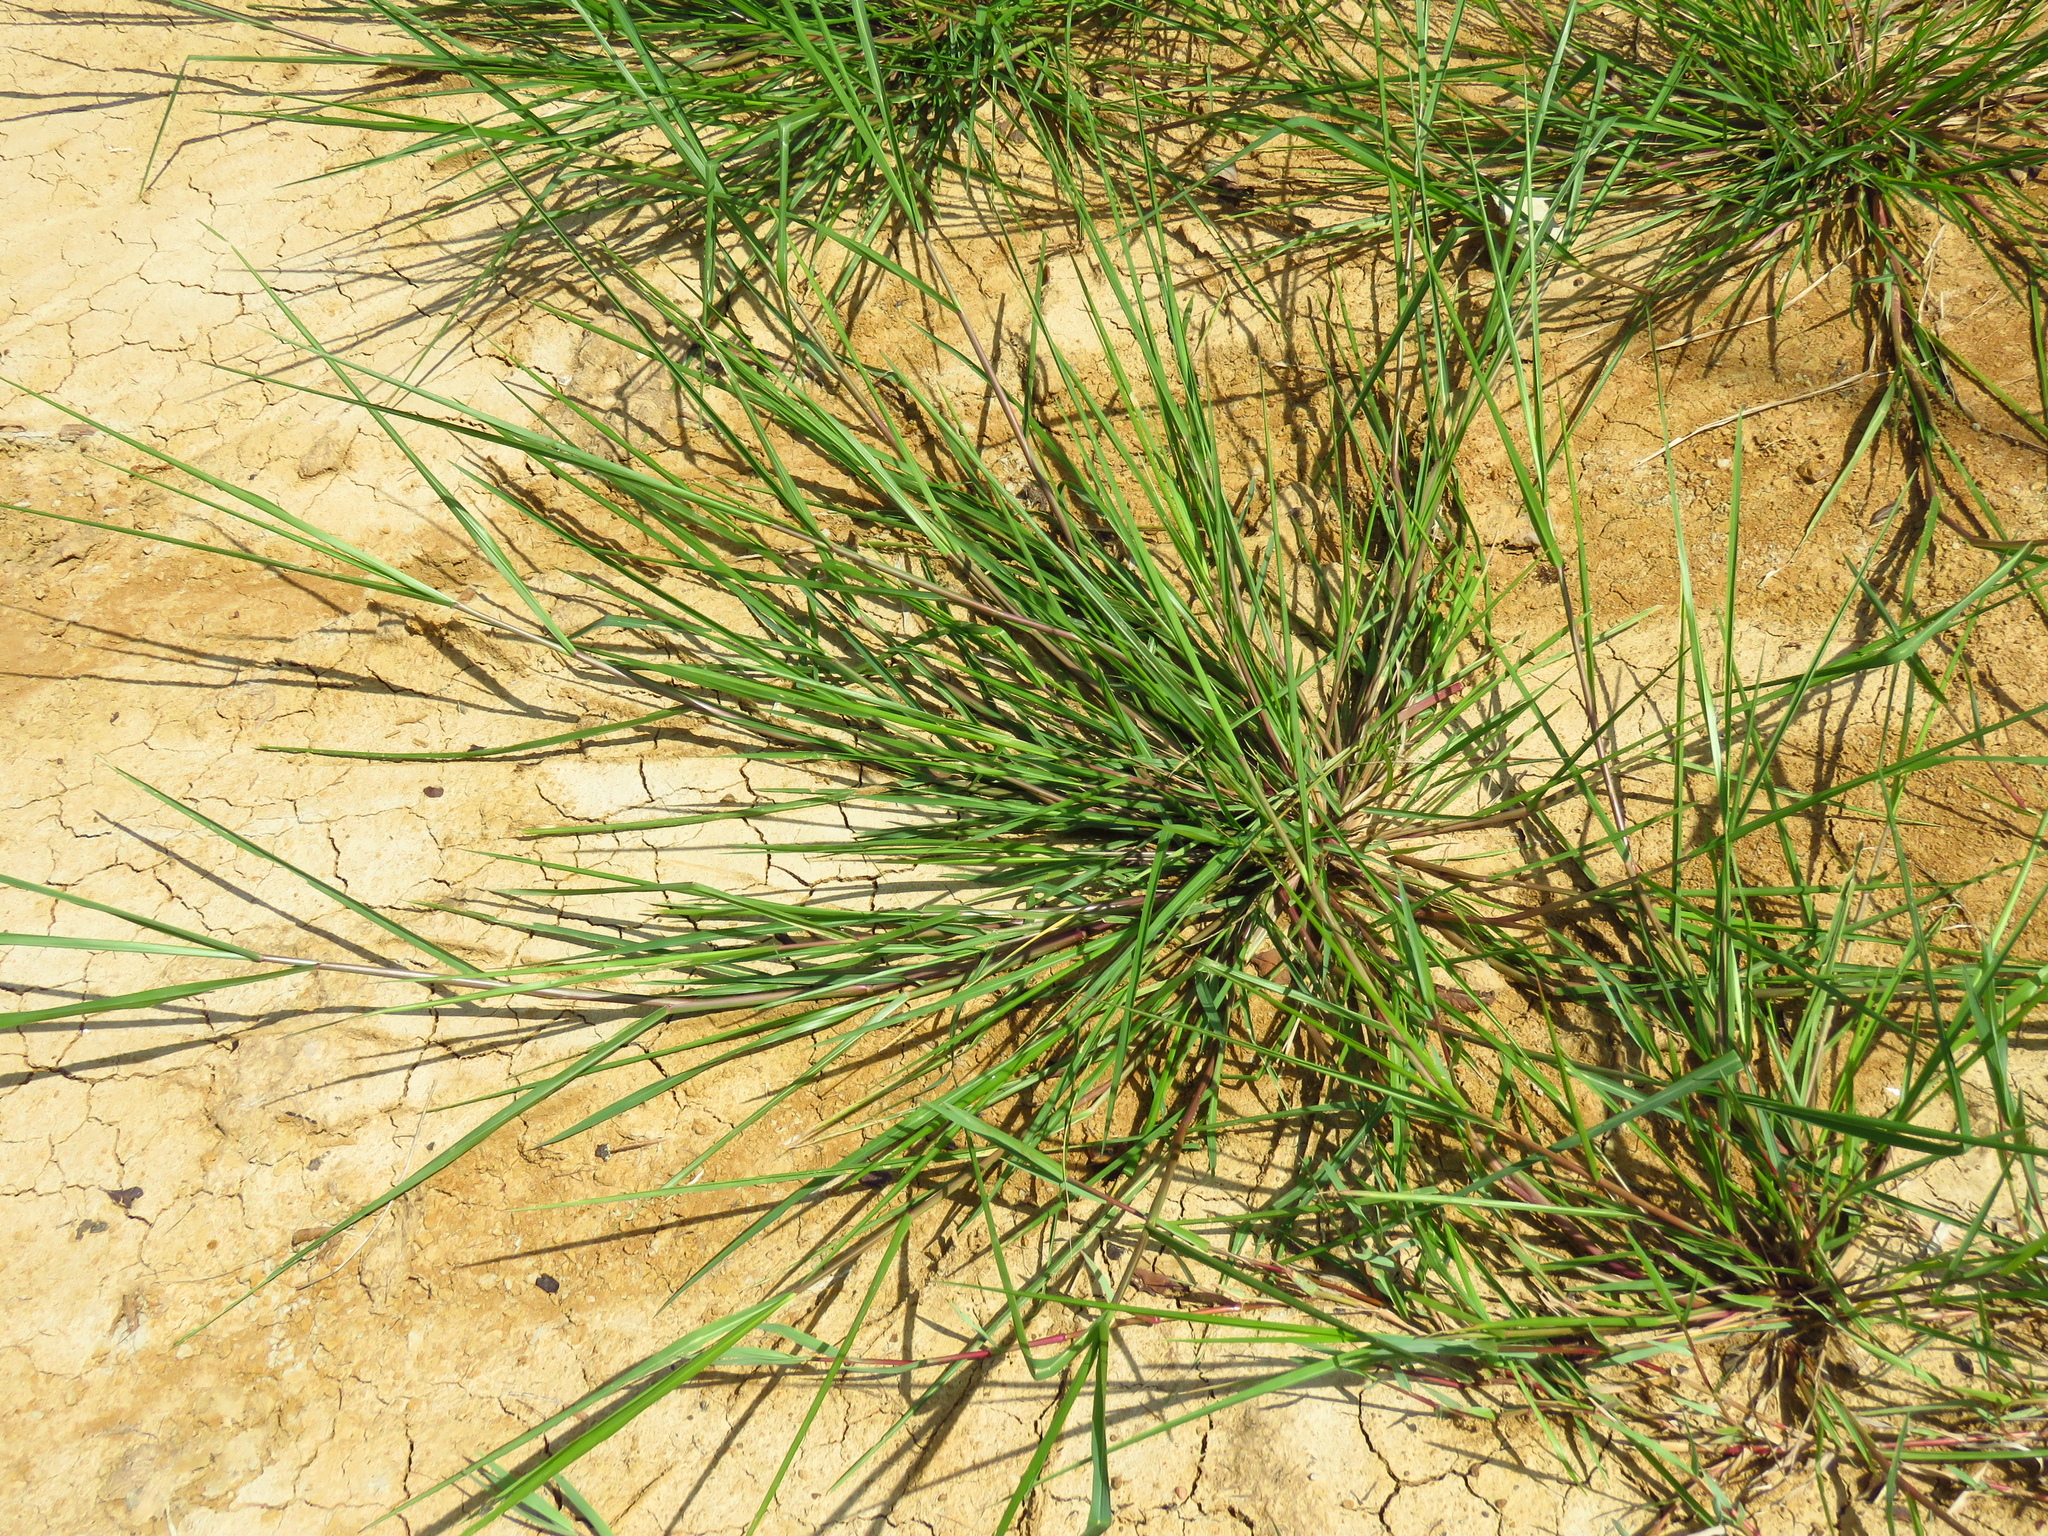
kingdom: Plantae
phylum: Tracheophyta
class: Liliopsida
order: Poales
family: Poaceae
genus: Panicum
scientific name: Panicum dichotomiflorum
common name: Autumn millet
